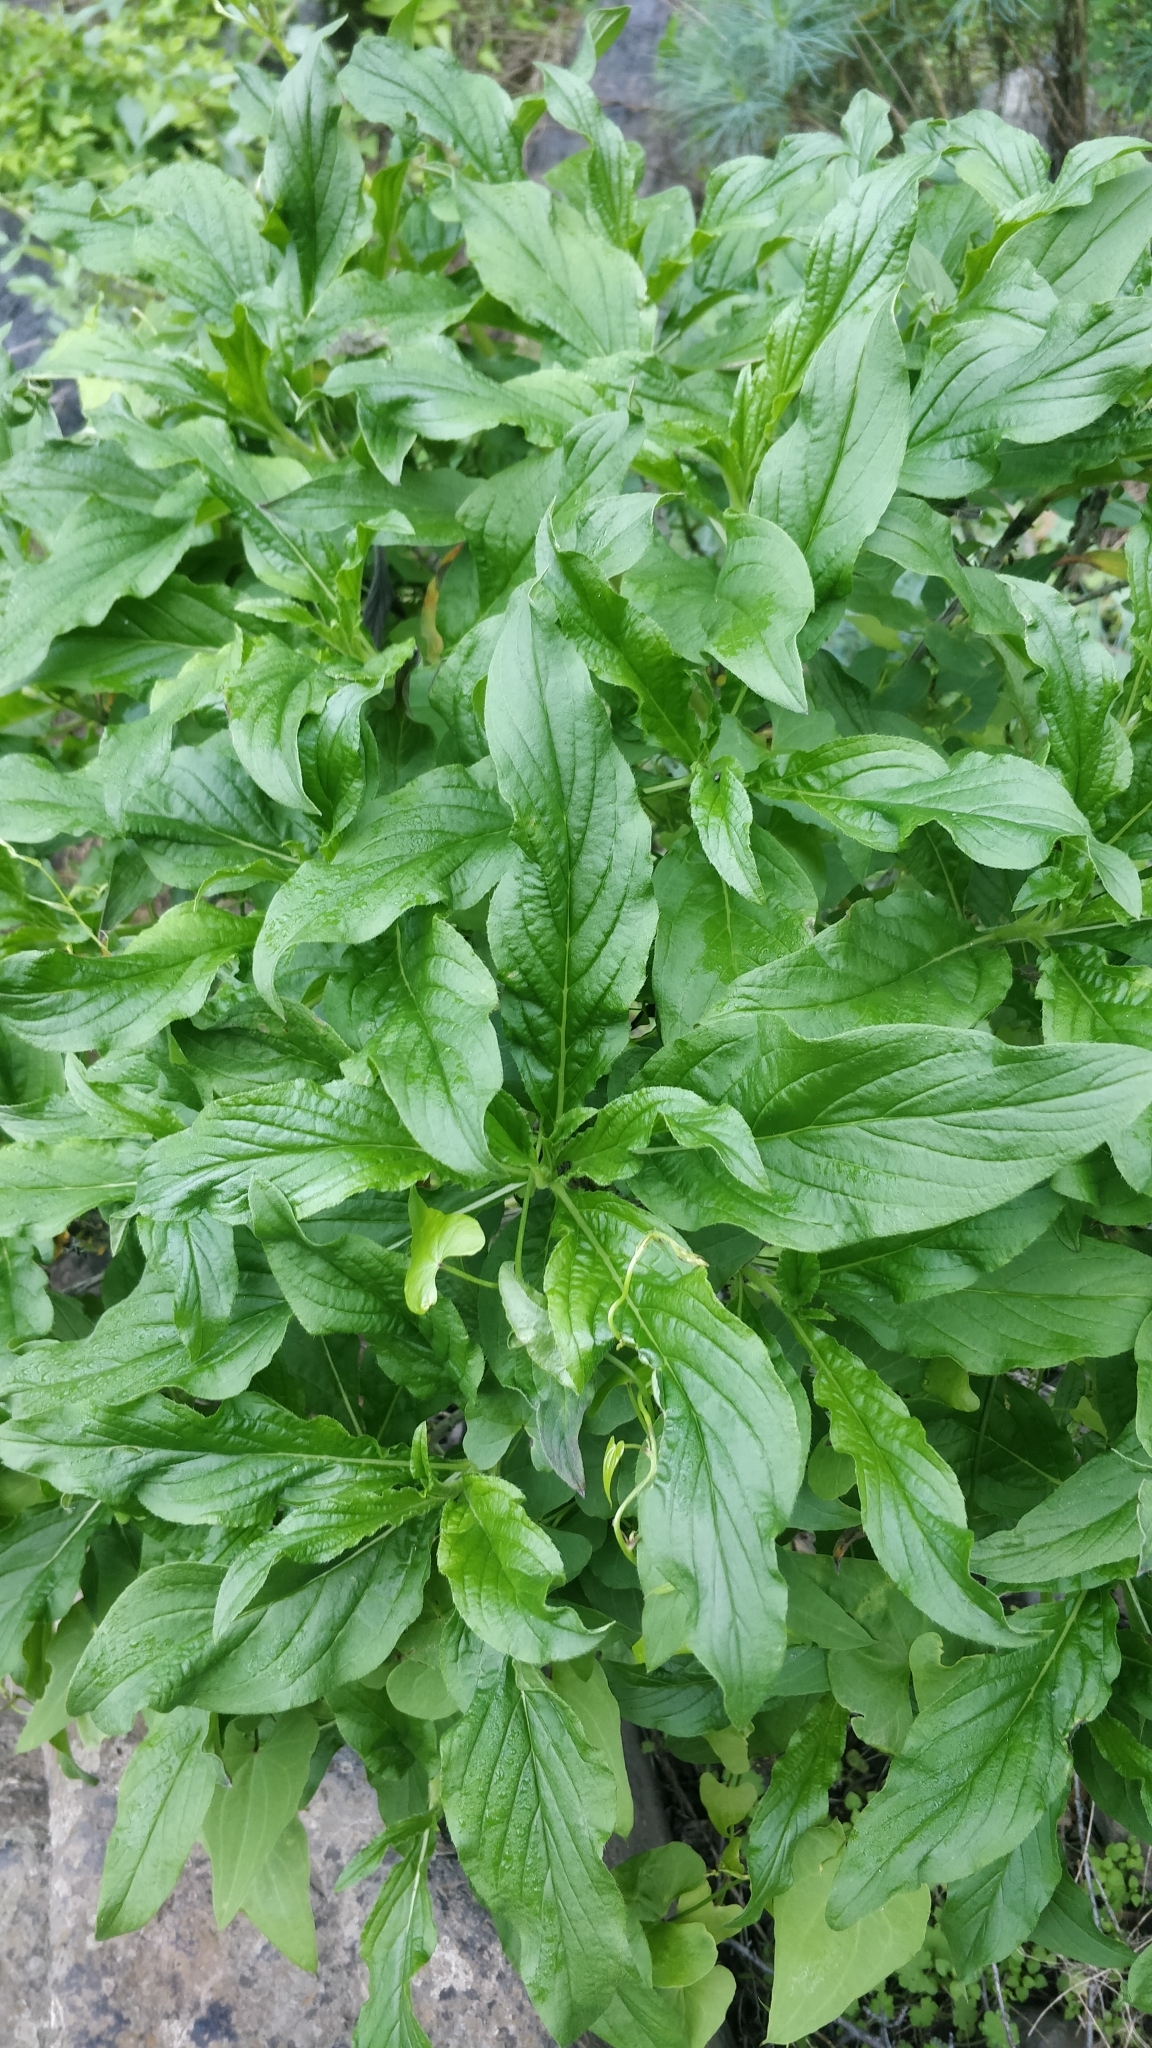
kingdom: Plantae
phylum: Tracheophyta
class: Magnoliopsida
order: Gentianales
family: Rubiaceae
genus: Phyllis
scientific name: Phyllis nobla
